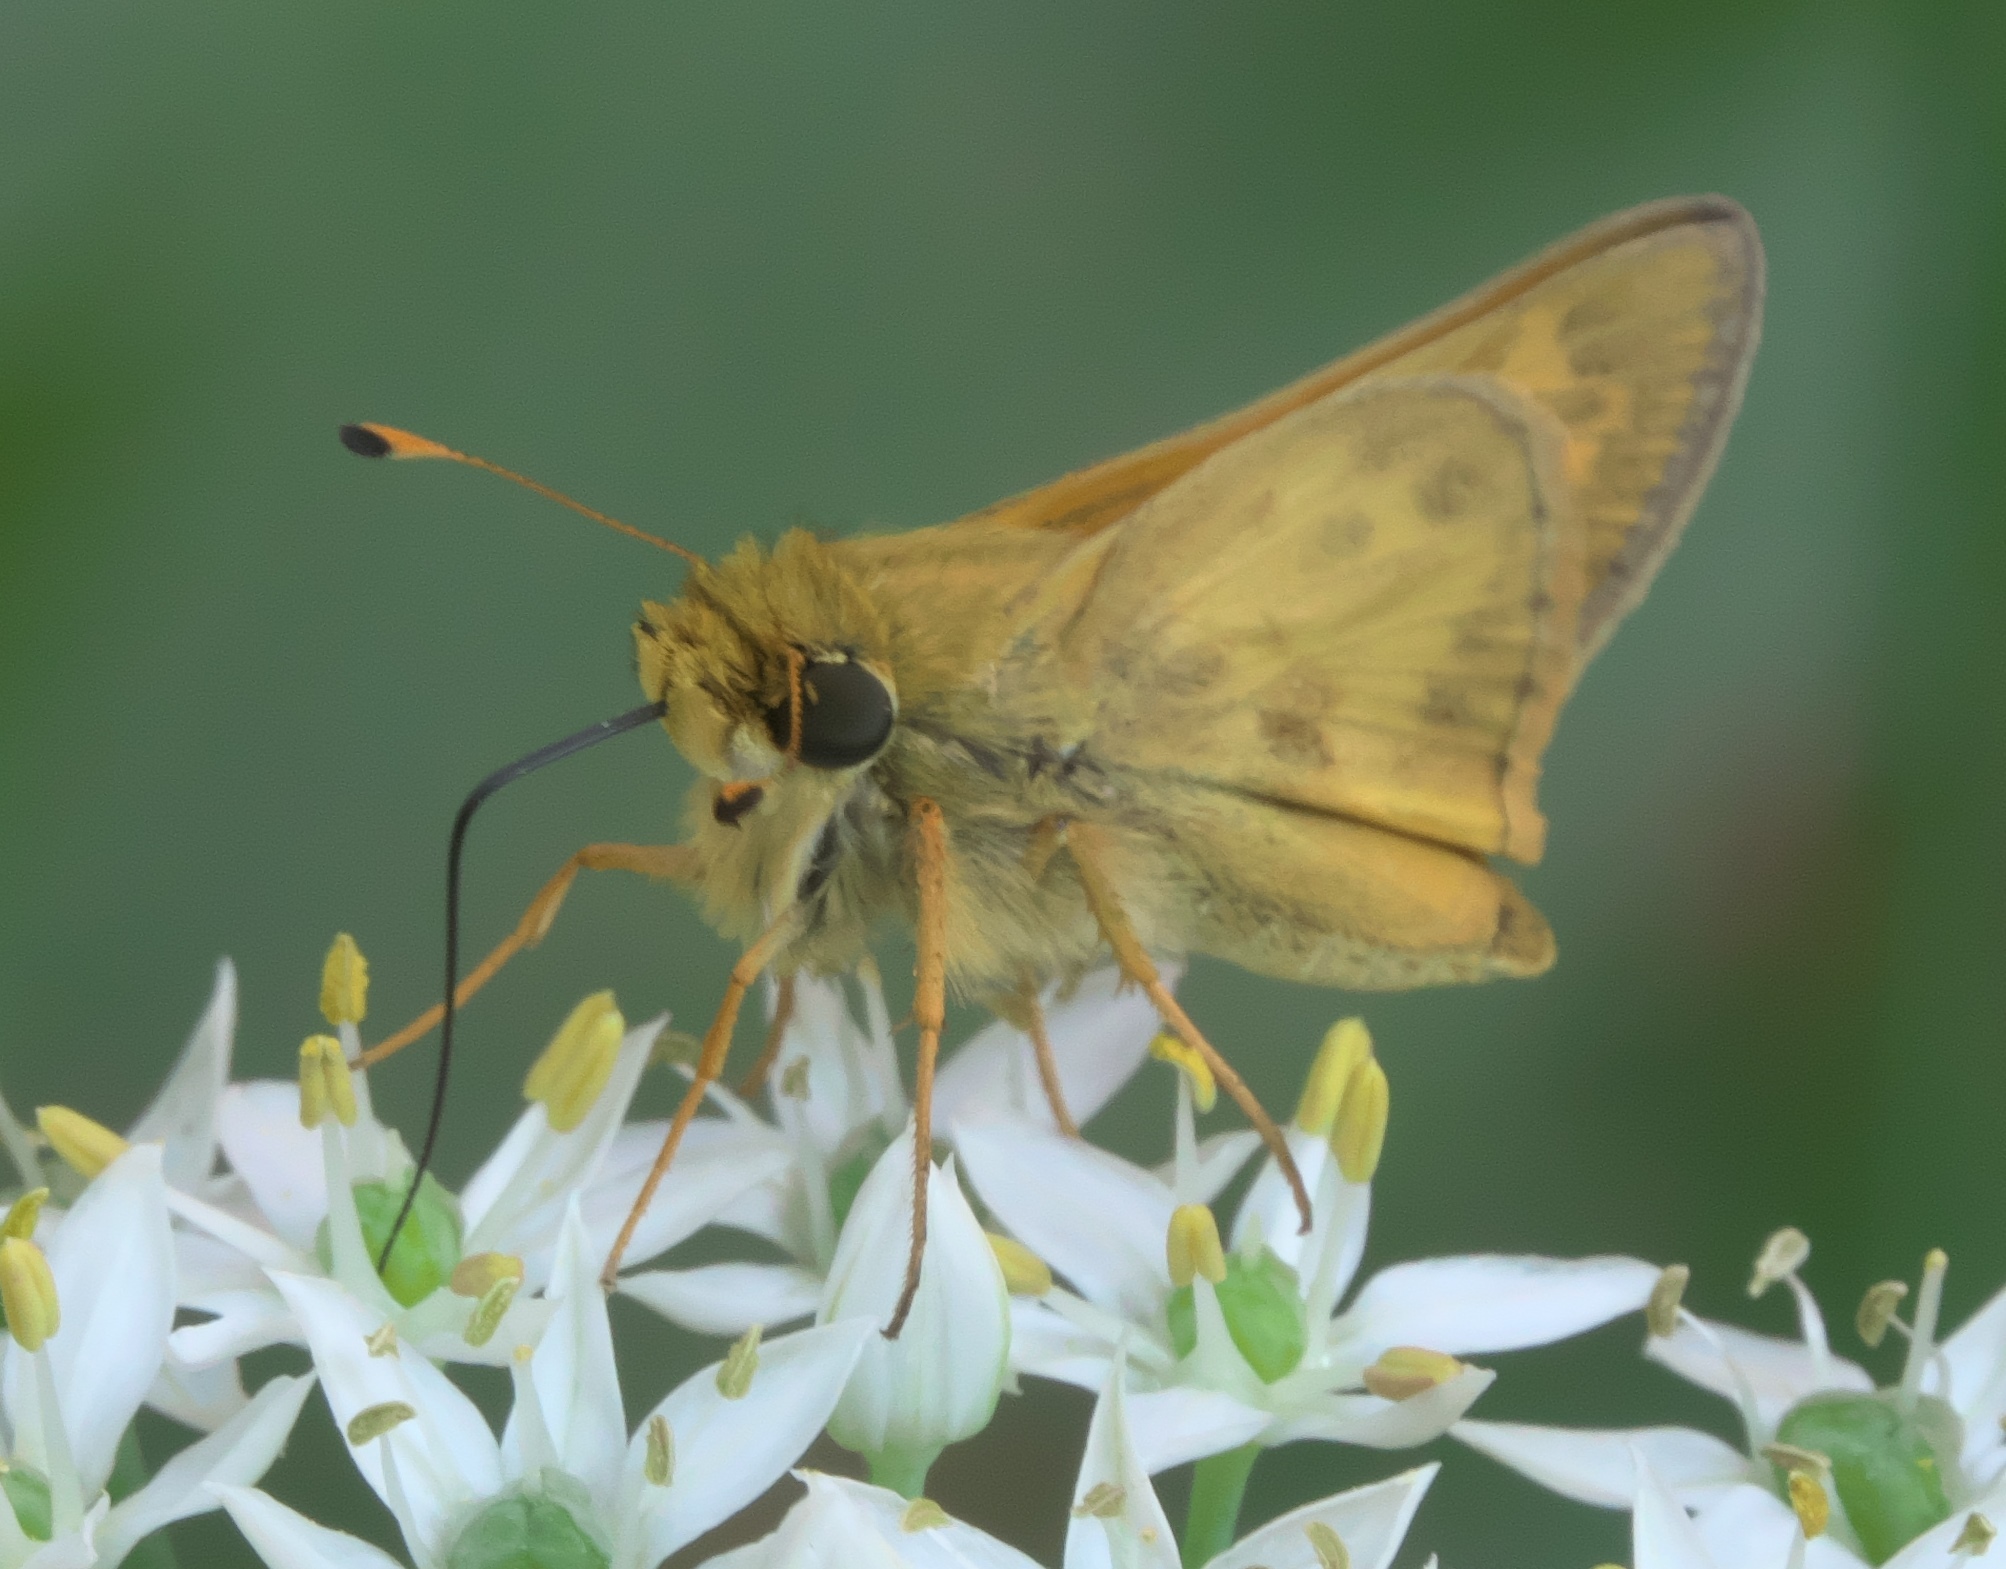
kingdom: Animalia
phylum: Arthropoda
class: Insecta
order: Lepidoptera
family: Hesperiidae
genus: Atalopedes
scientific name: Atalopedes
